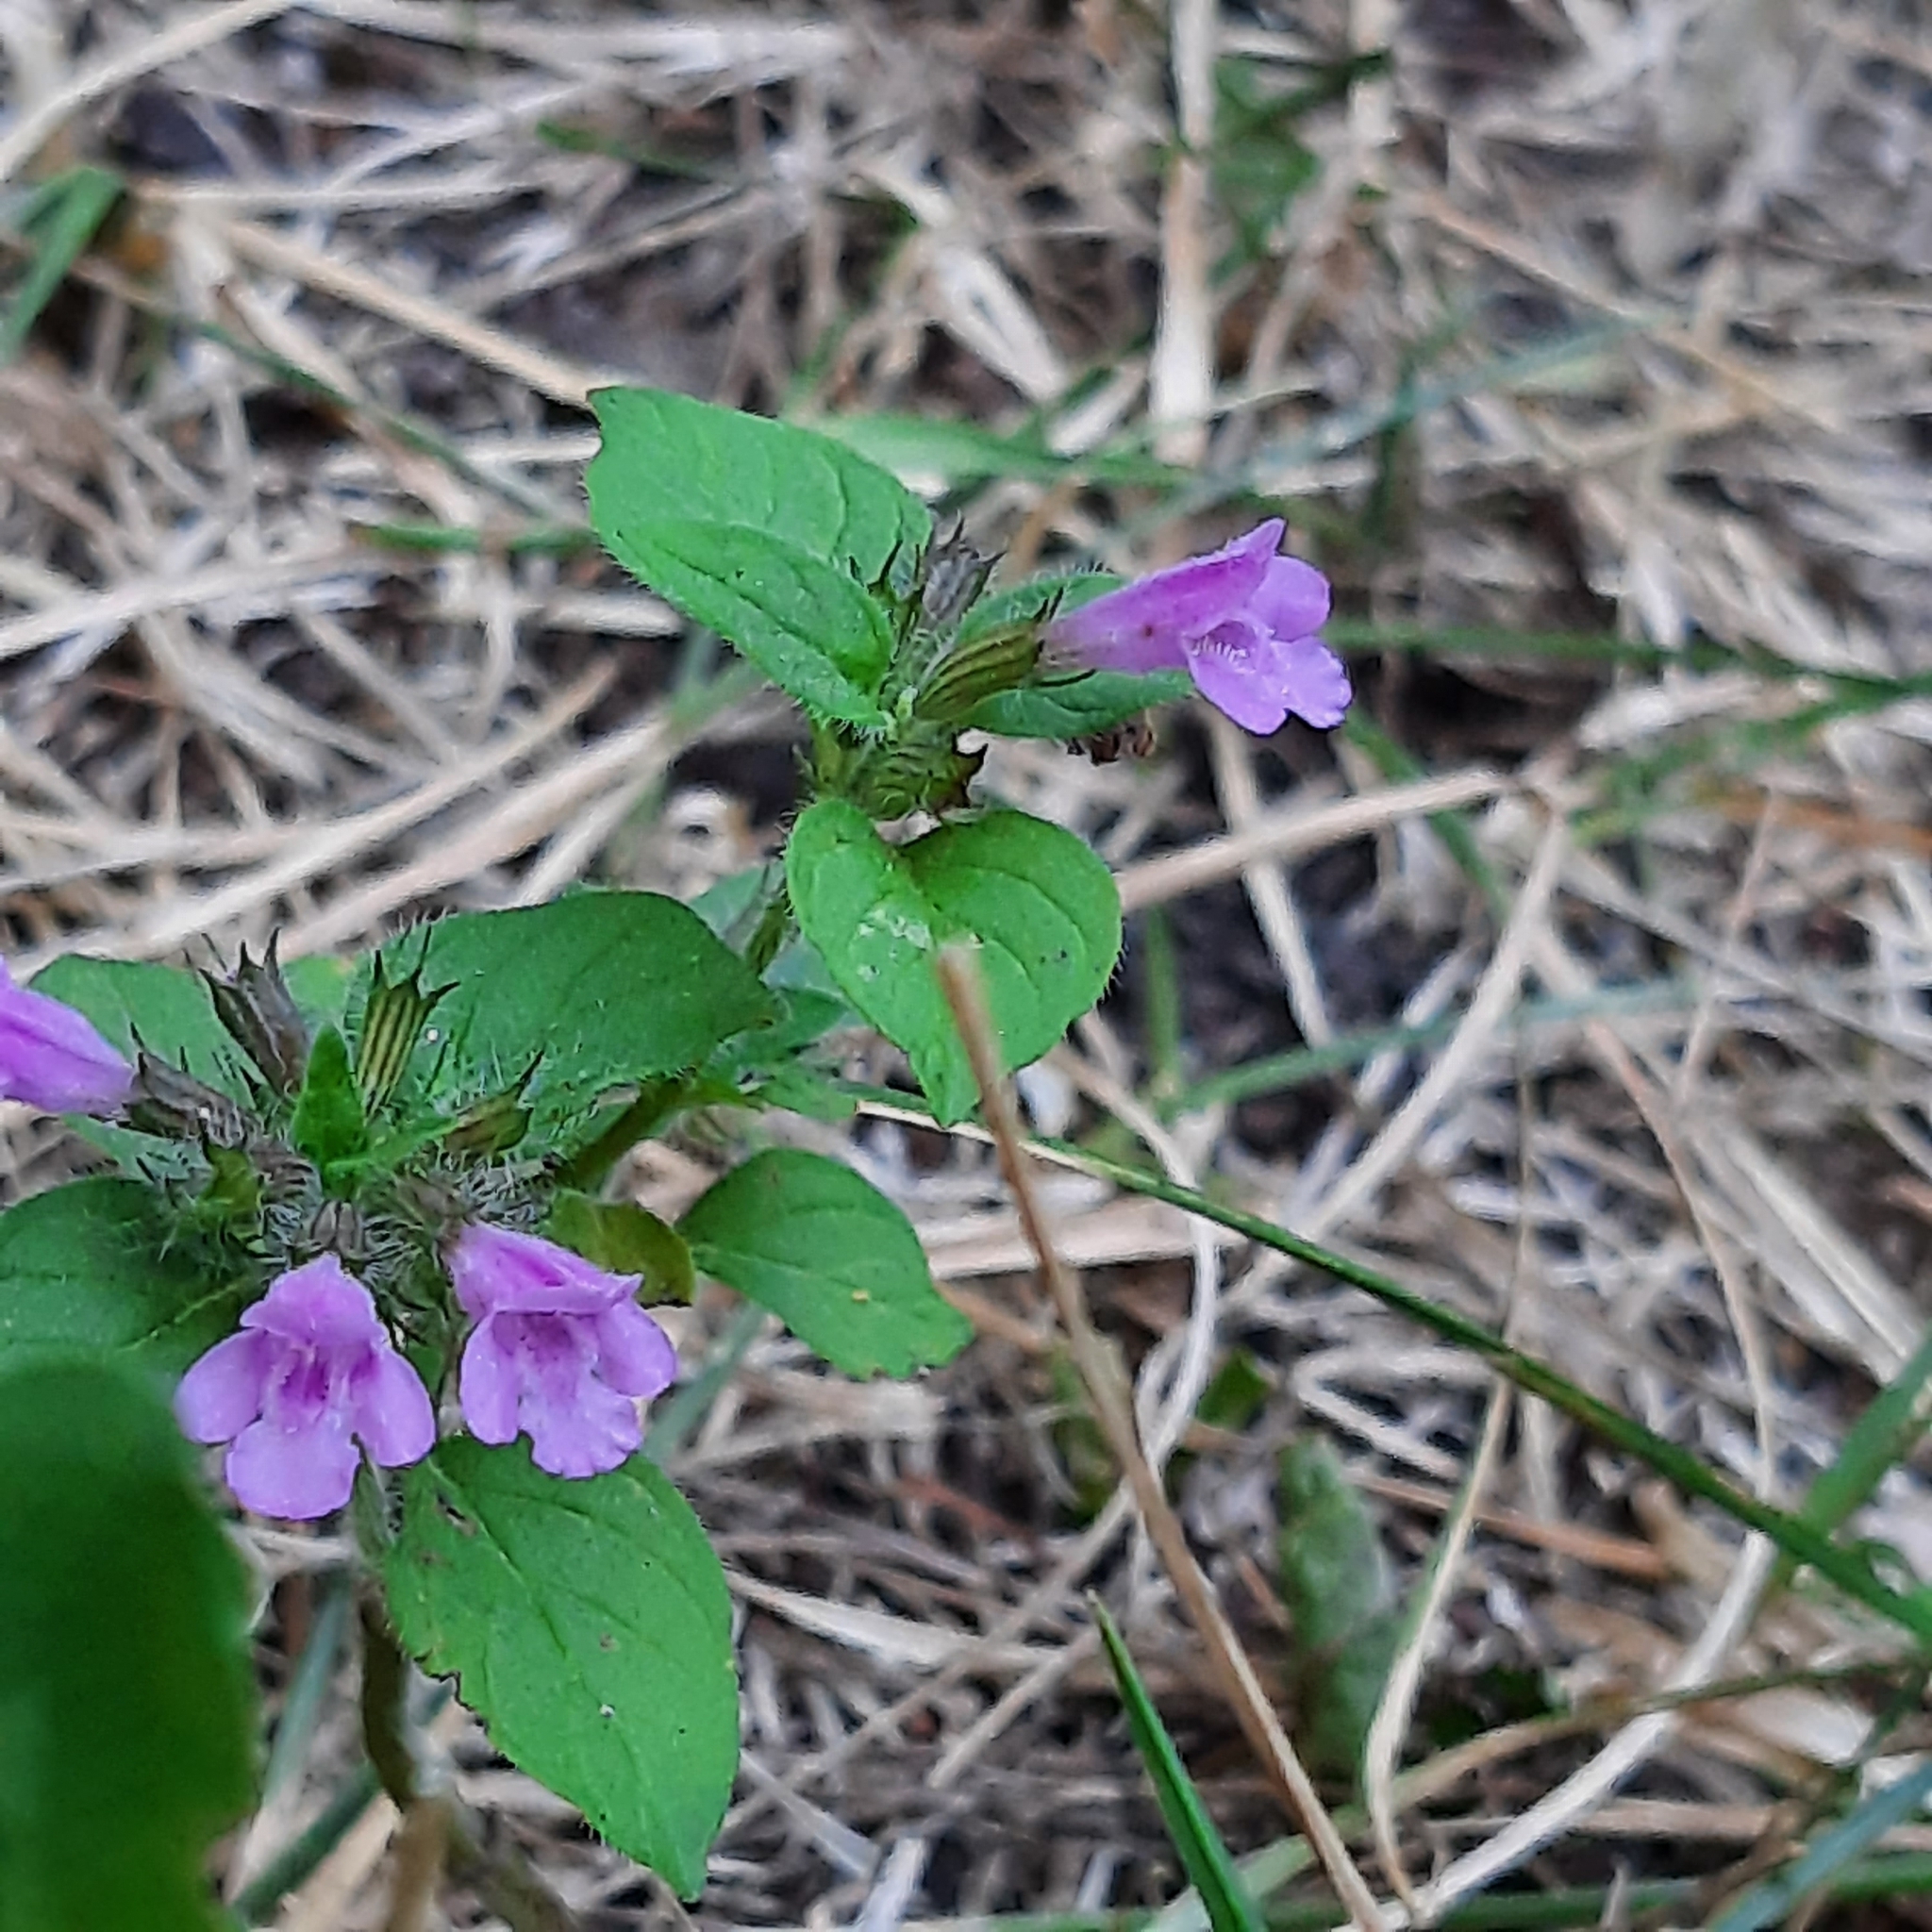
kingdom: Plantae
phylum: Tracheophyta
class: Magnoliopsida
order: Lamiales
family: Lamiaceae
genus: Clinopodium
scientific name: Clinopodium vulgare
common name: Wild basil
